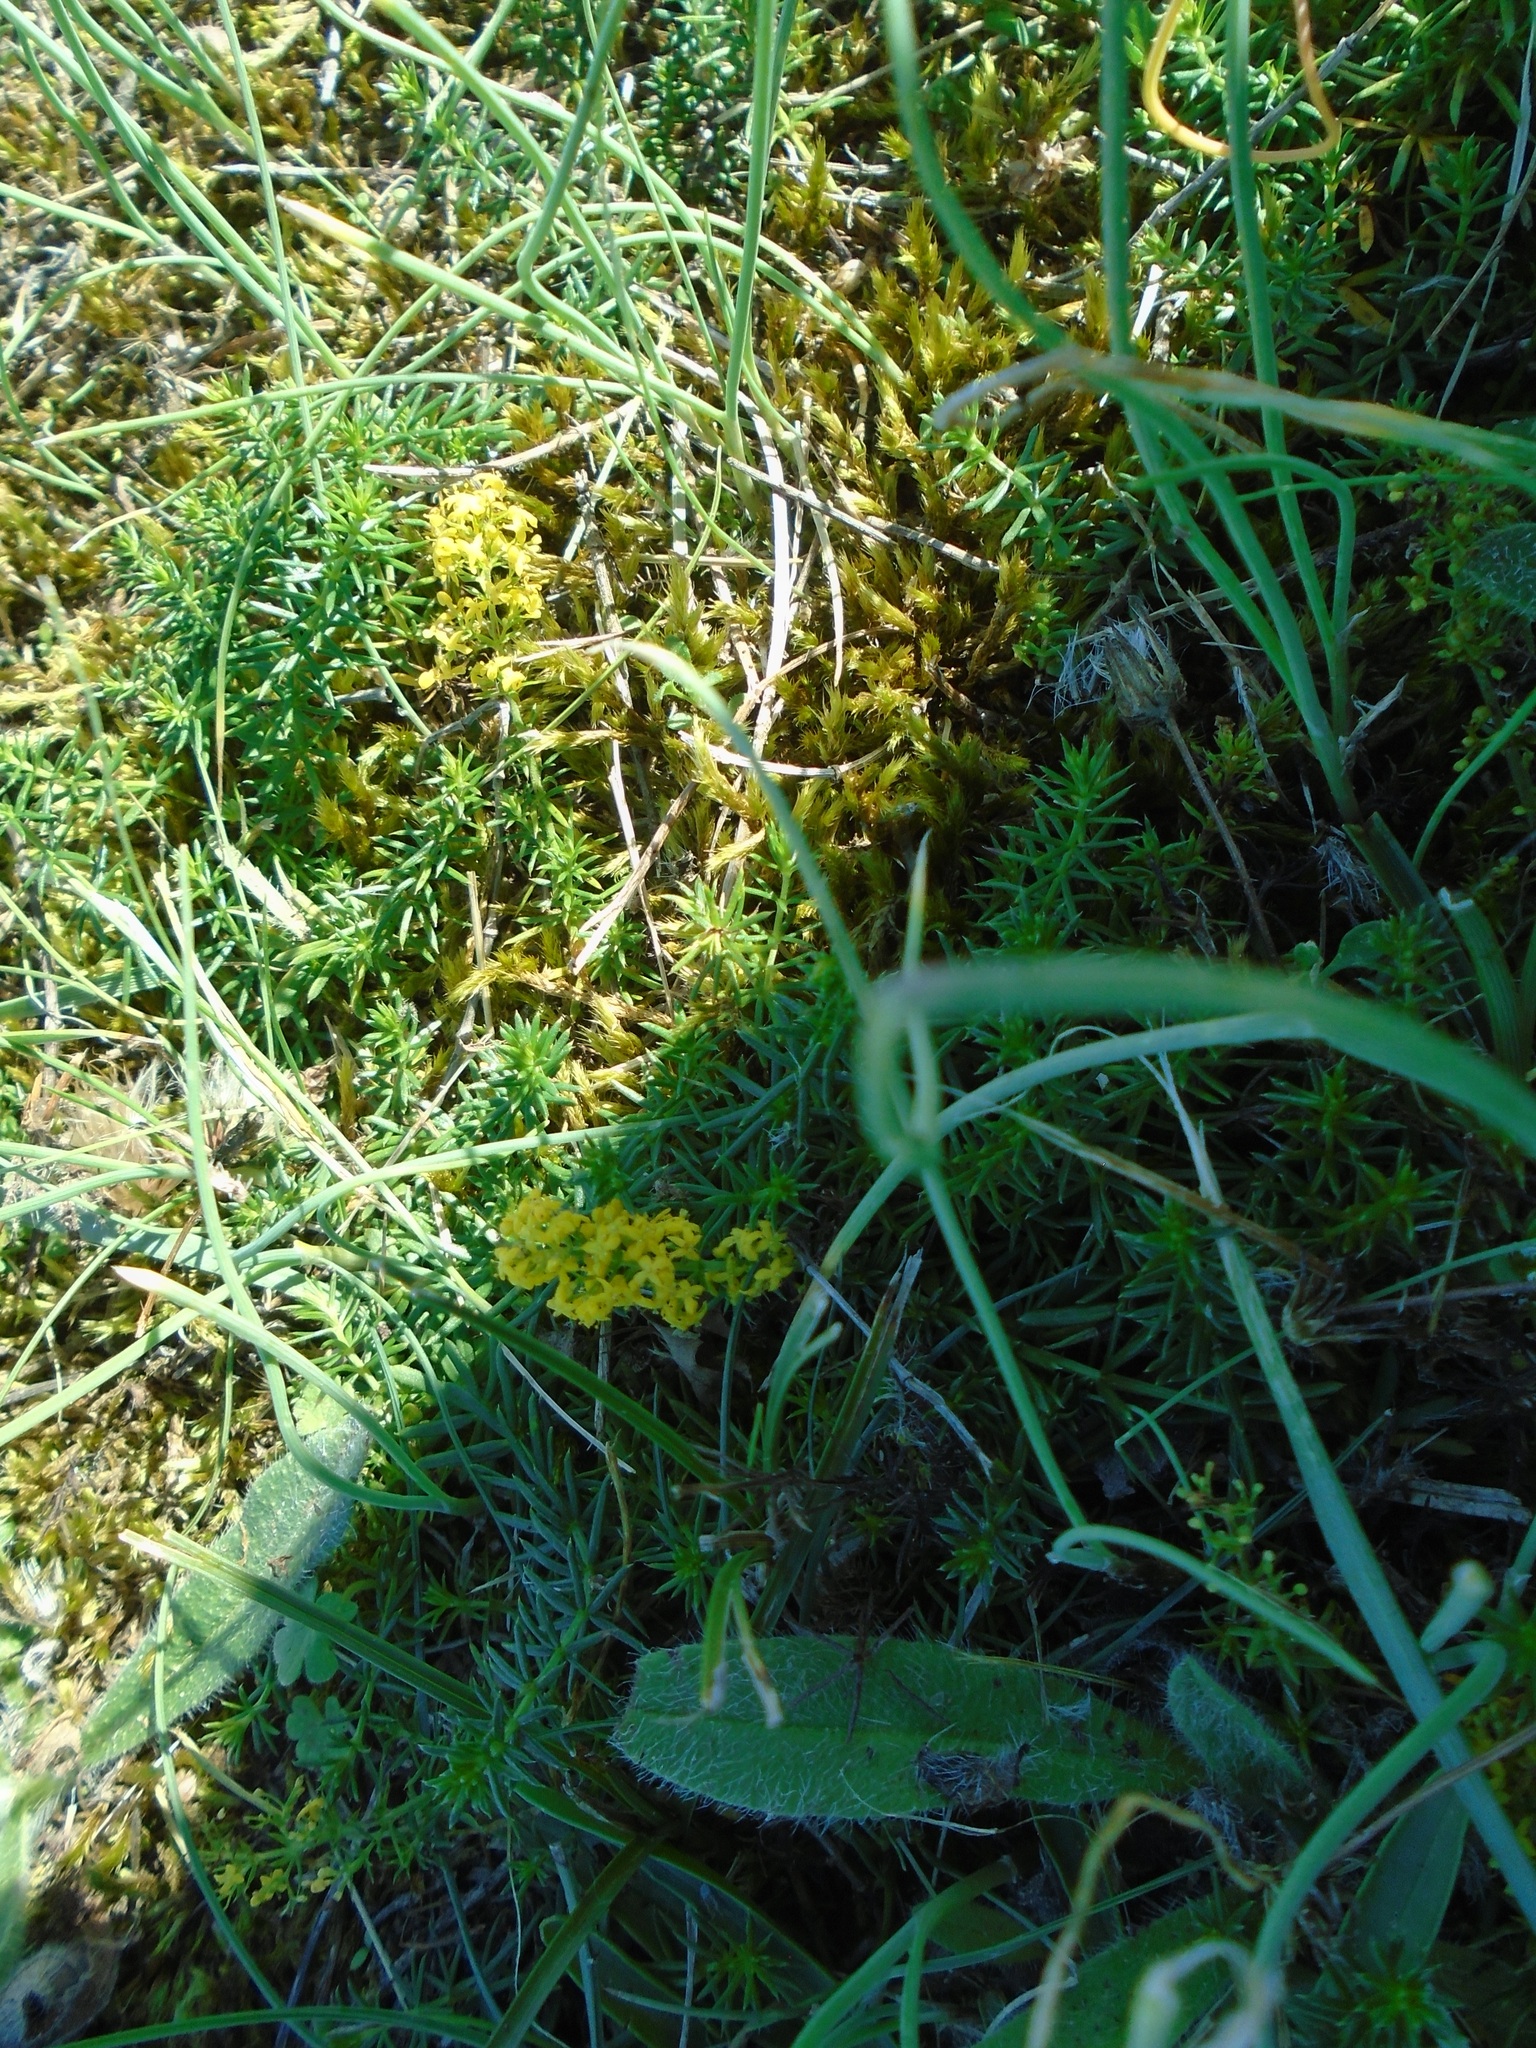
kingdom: Plantae
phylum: Tracheophyta
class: Magnoliopsida
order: Gentianales
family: Rubiaceae
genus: Galium
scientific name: Galium verum
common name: Lady's bedstraw
